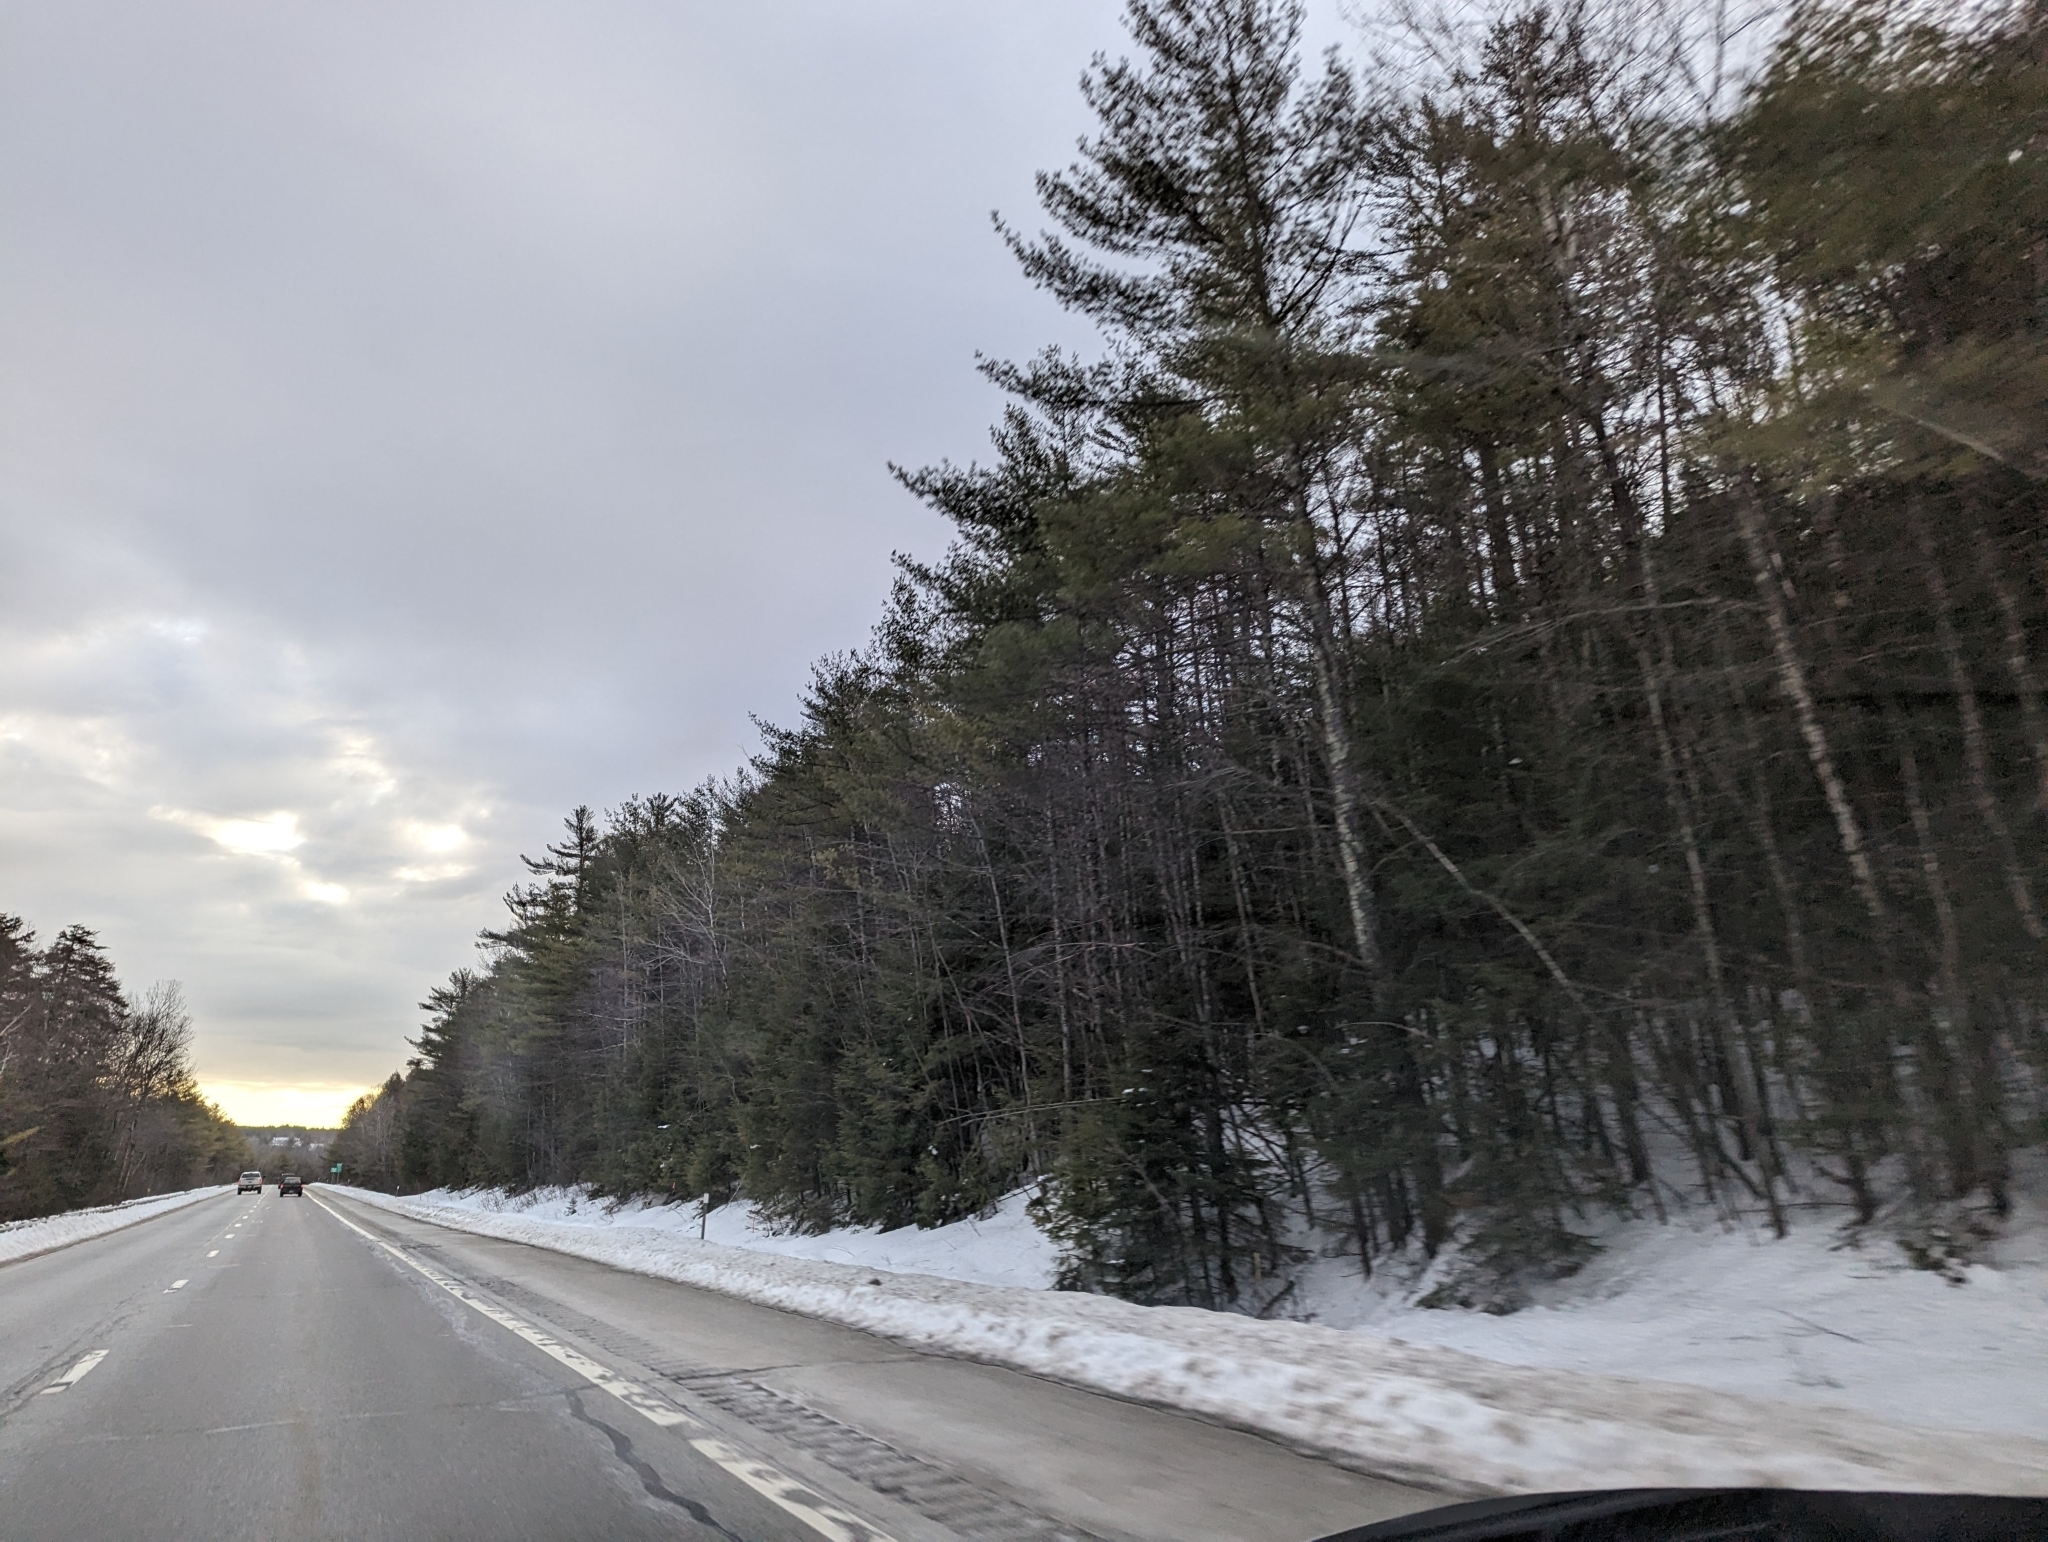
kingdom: Plantae
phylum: Tracheophyta
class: Pinopsida
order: Pinales
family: Pinaceae
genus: Pinus
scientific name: Pinus strobus
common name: Weymouth pine
